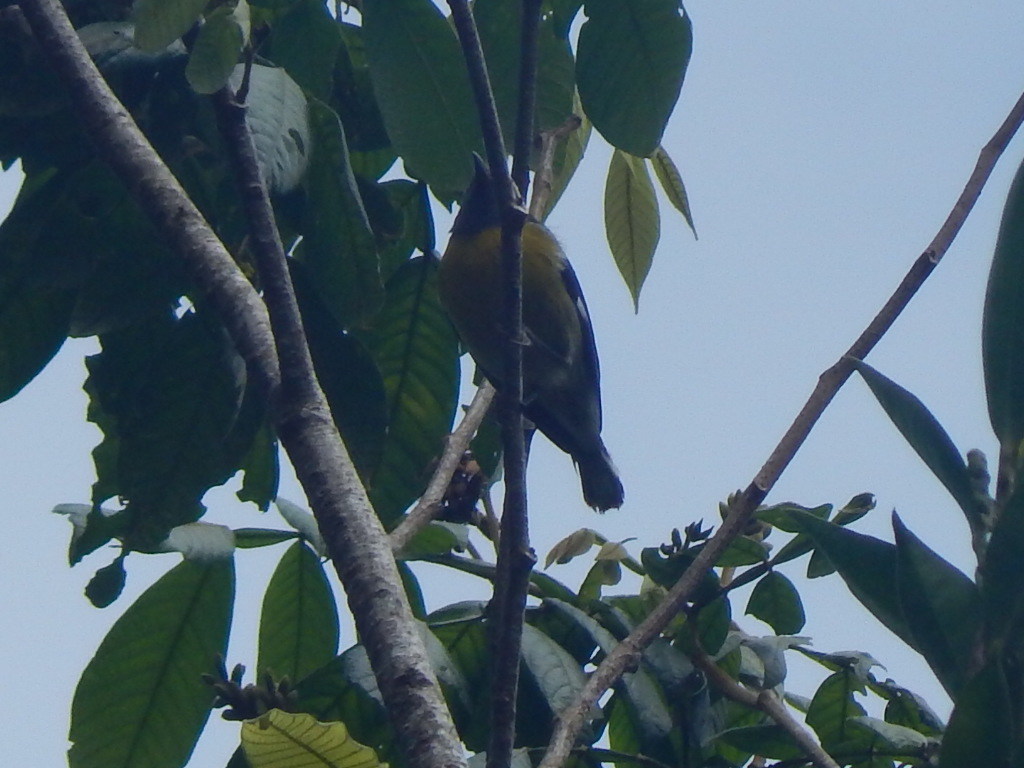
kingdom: Animalia
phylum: Chordata
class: Aves
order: Passeriformes
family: Thraupidae
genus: Coereba
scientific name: Coereba flaveola
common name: Bananaquit
